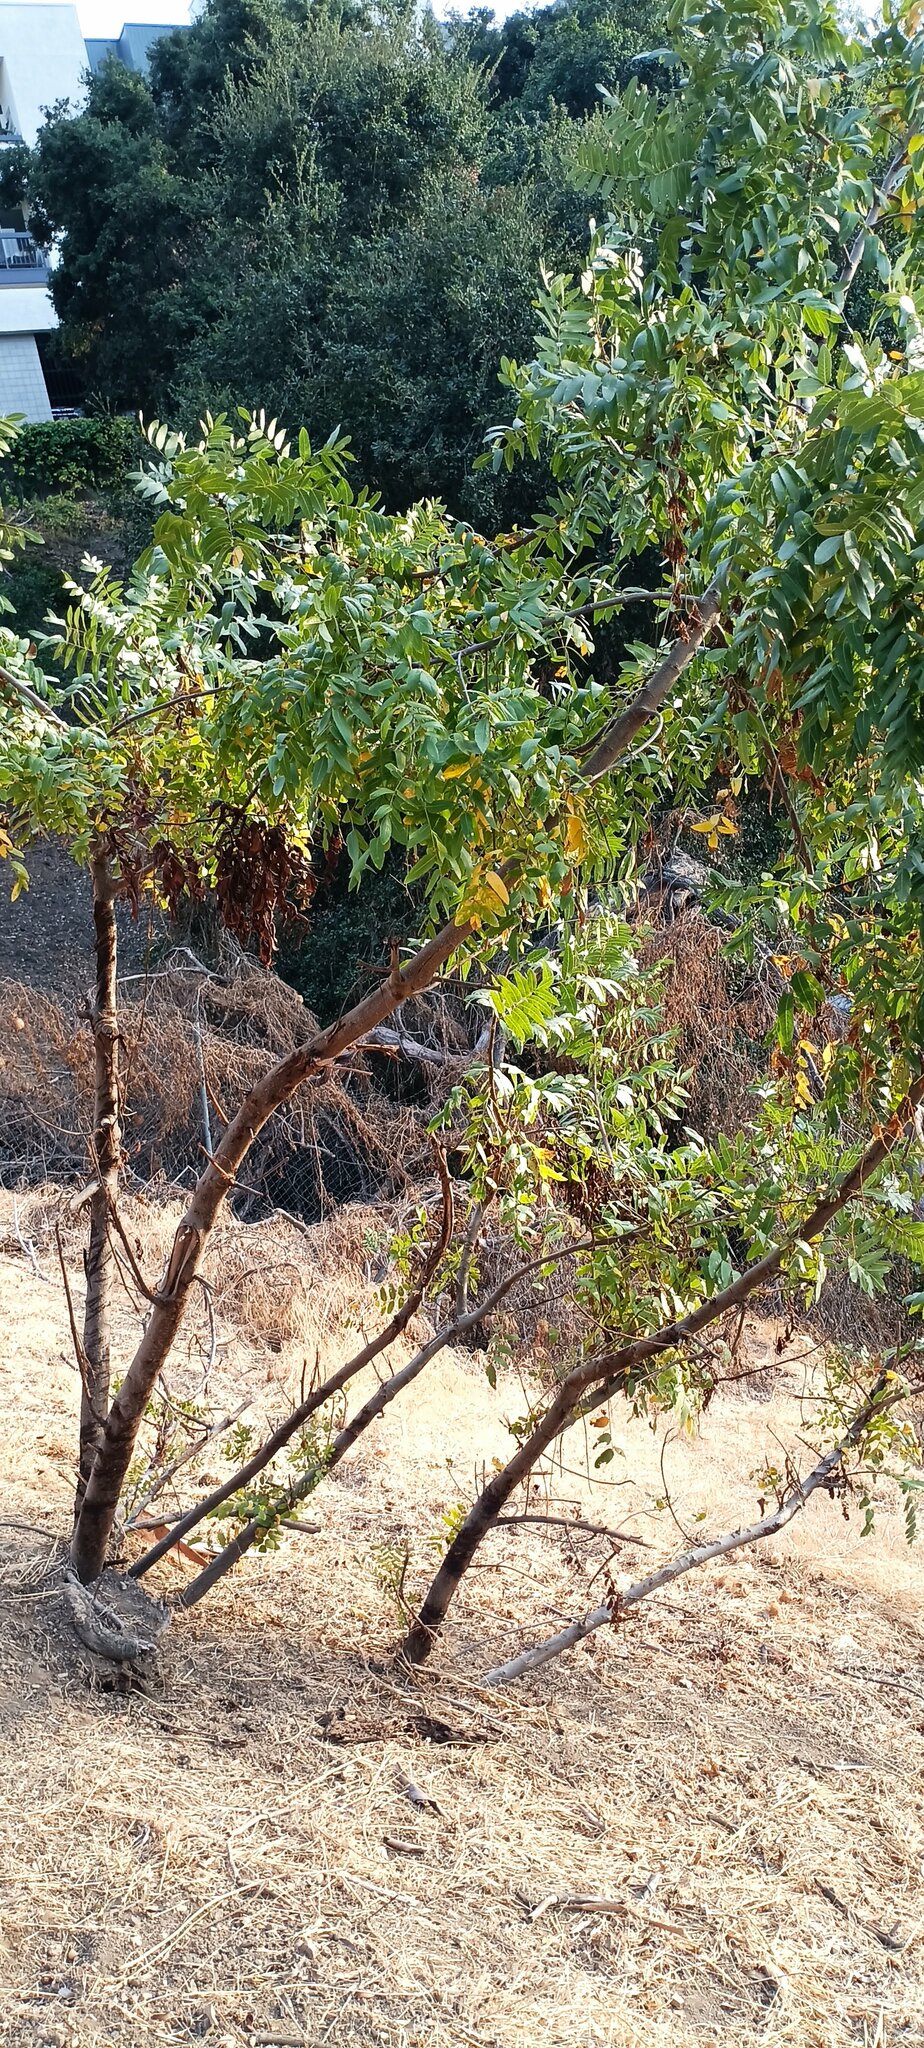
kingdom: Plantae
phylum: Tracheophyta
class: Magnoliopsida
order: Fagales
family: Juglandaceae
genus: Juglans
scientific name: Juglans californica
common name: Southern california black walnut
